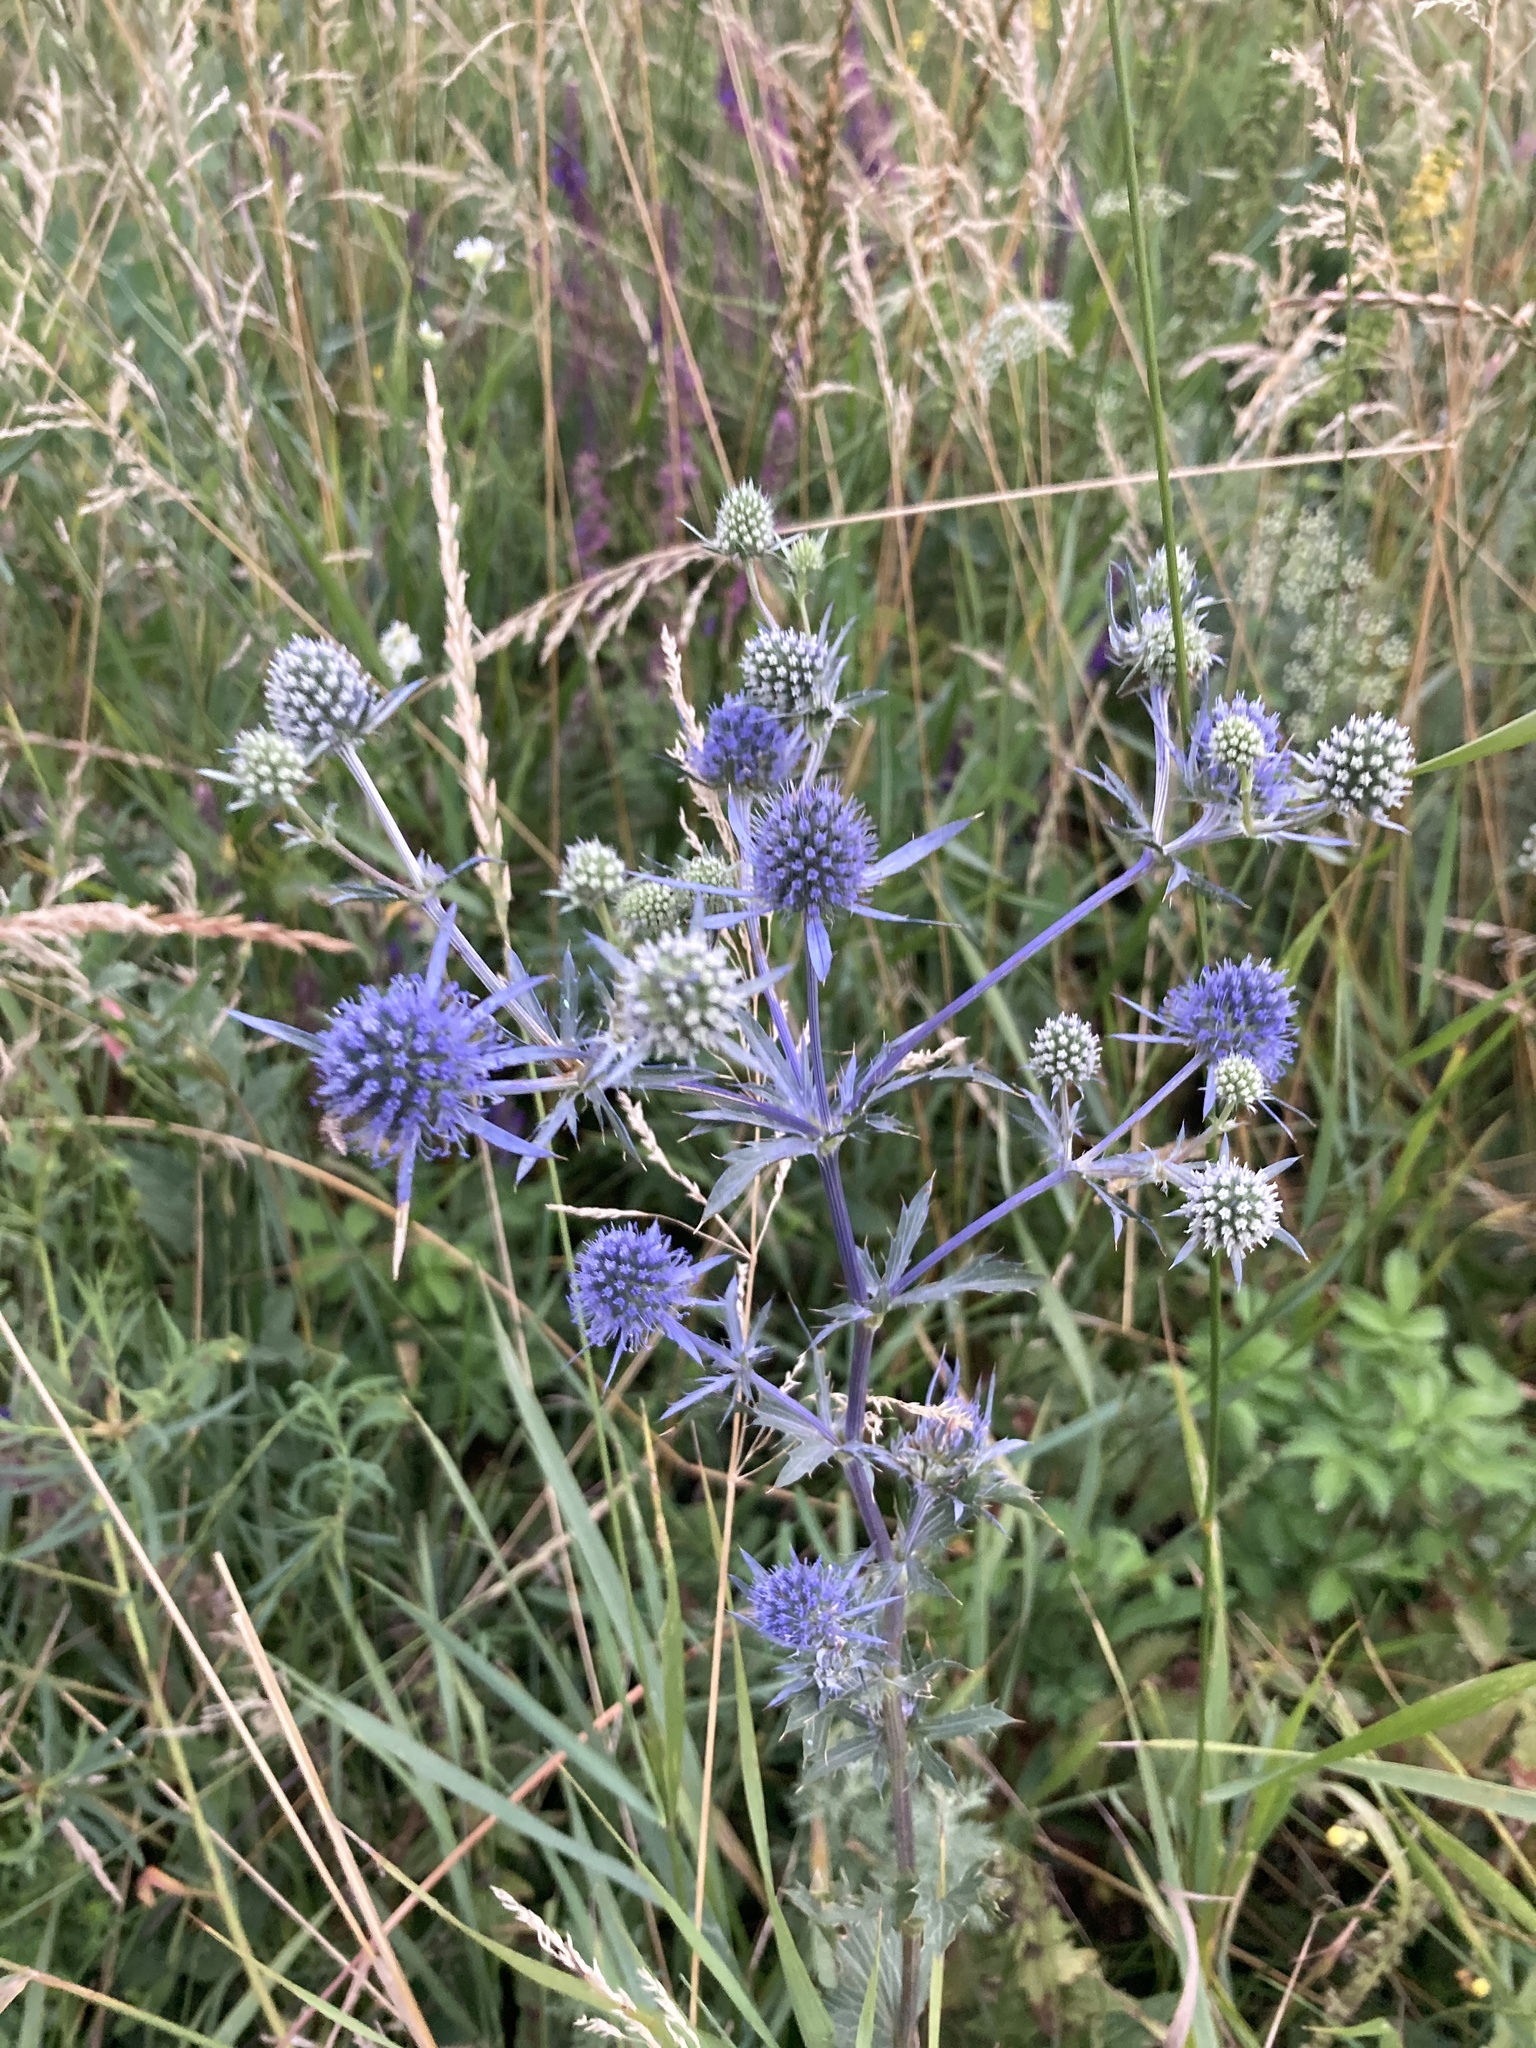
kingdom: Plantae
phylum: Tracheophyta
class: Magnoliopsida
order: Apiales
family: Apiaceae
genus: Eryngium
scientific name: Eryngium planum
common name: Blue eryngo
